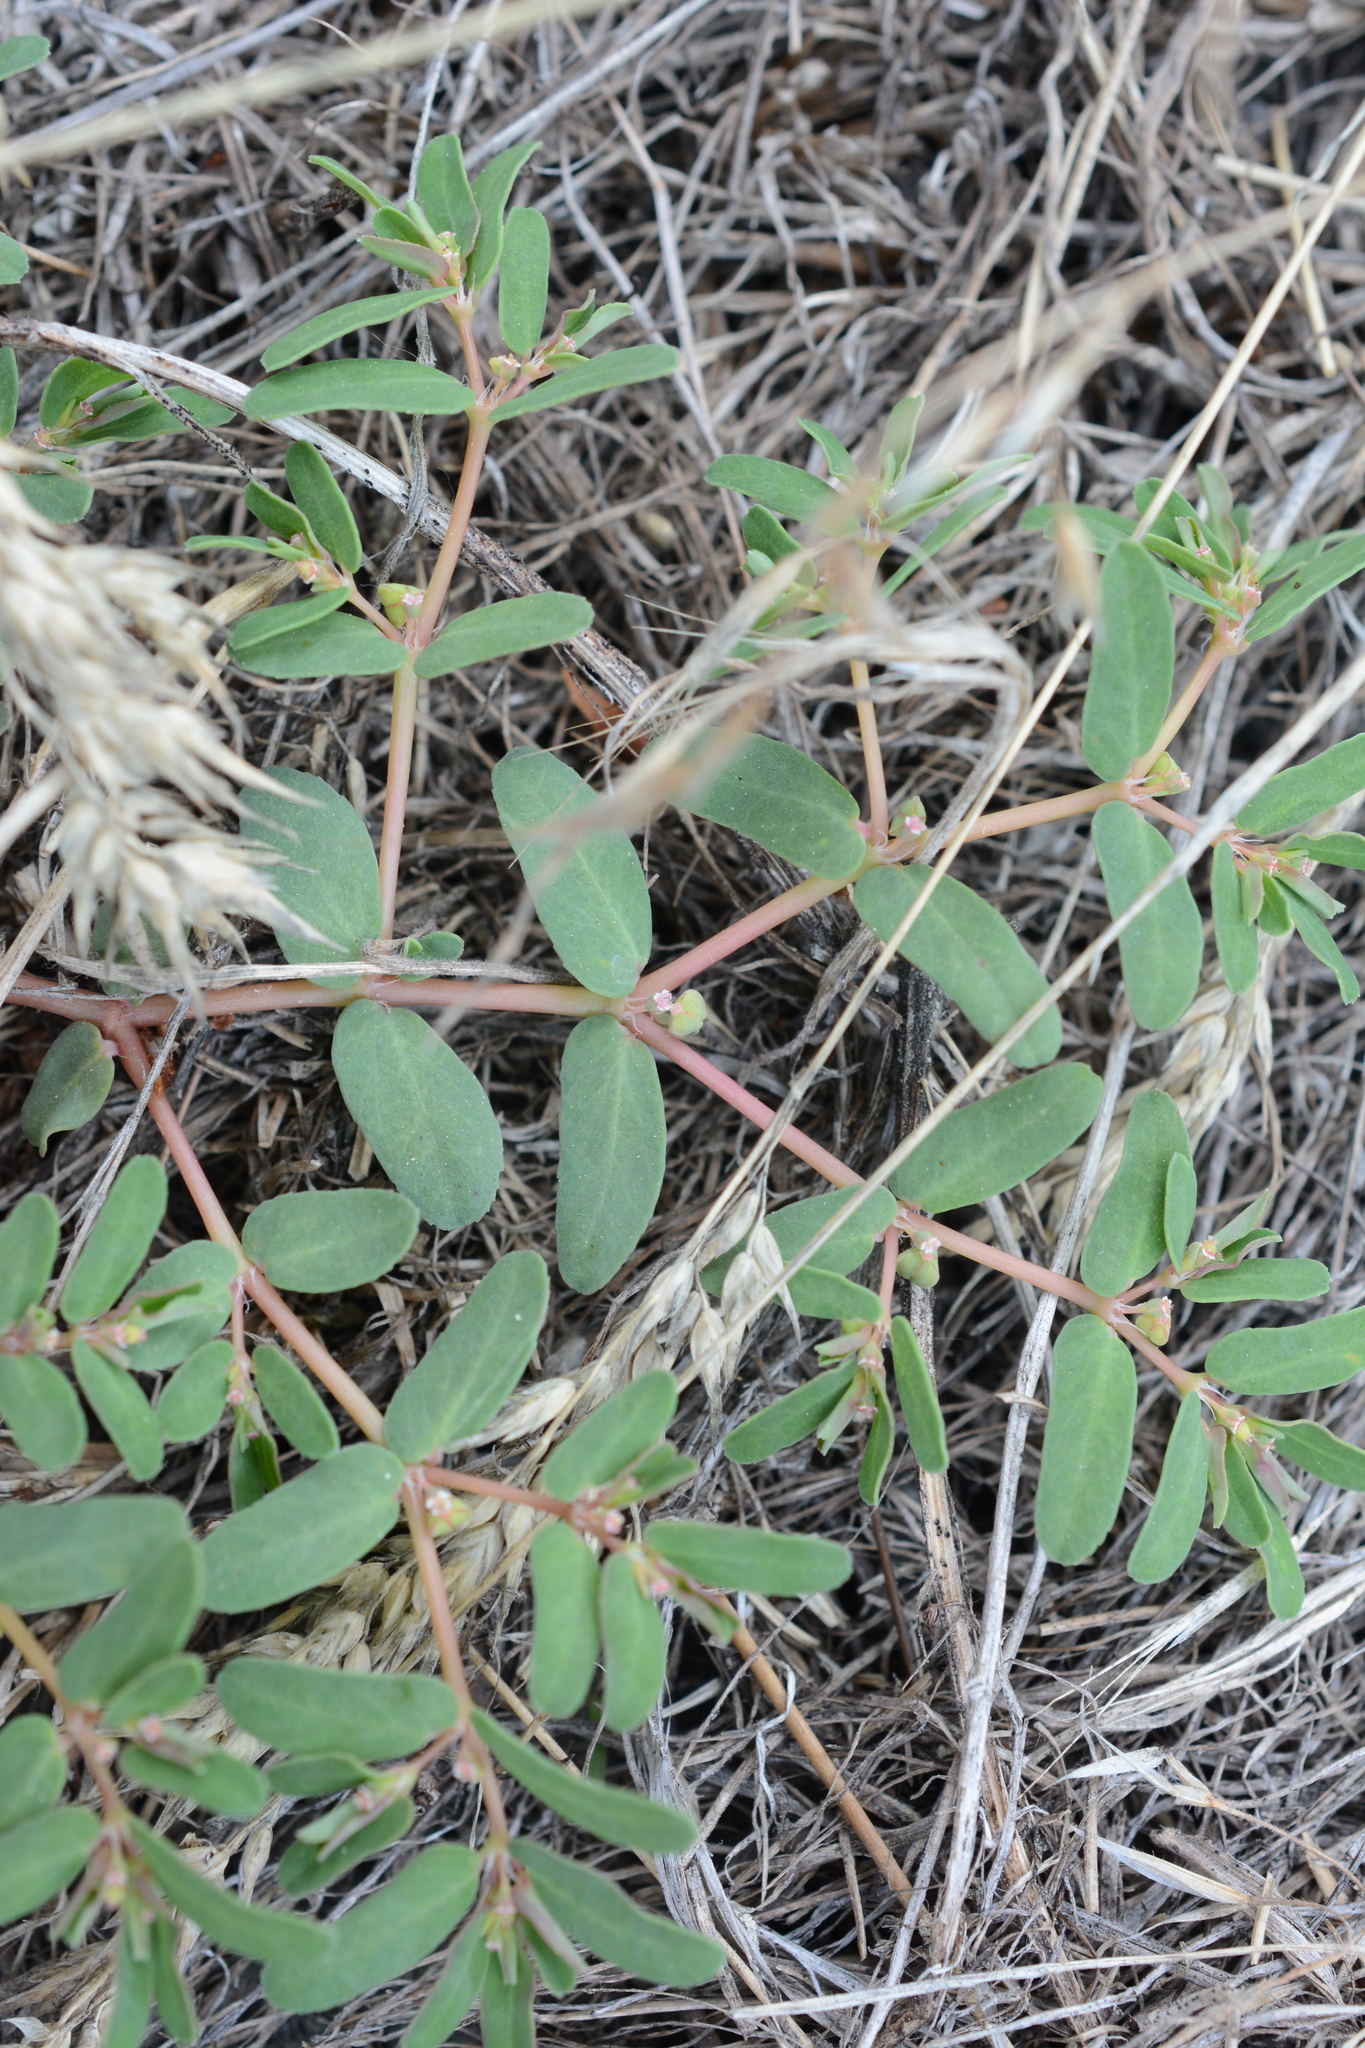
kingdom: Plantae
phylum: Tracheophyta
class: Magnoliopsida
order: Malpighiales
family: Euphorbiaceae
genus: Euphorbia
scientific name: Euphorbia glyptosperma
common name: Corrugate-seeded spurge
